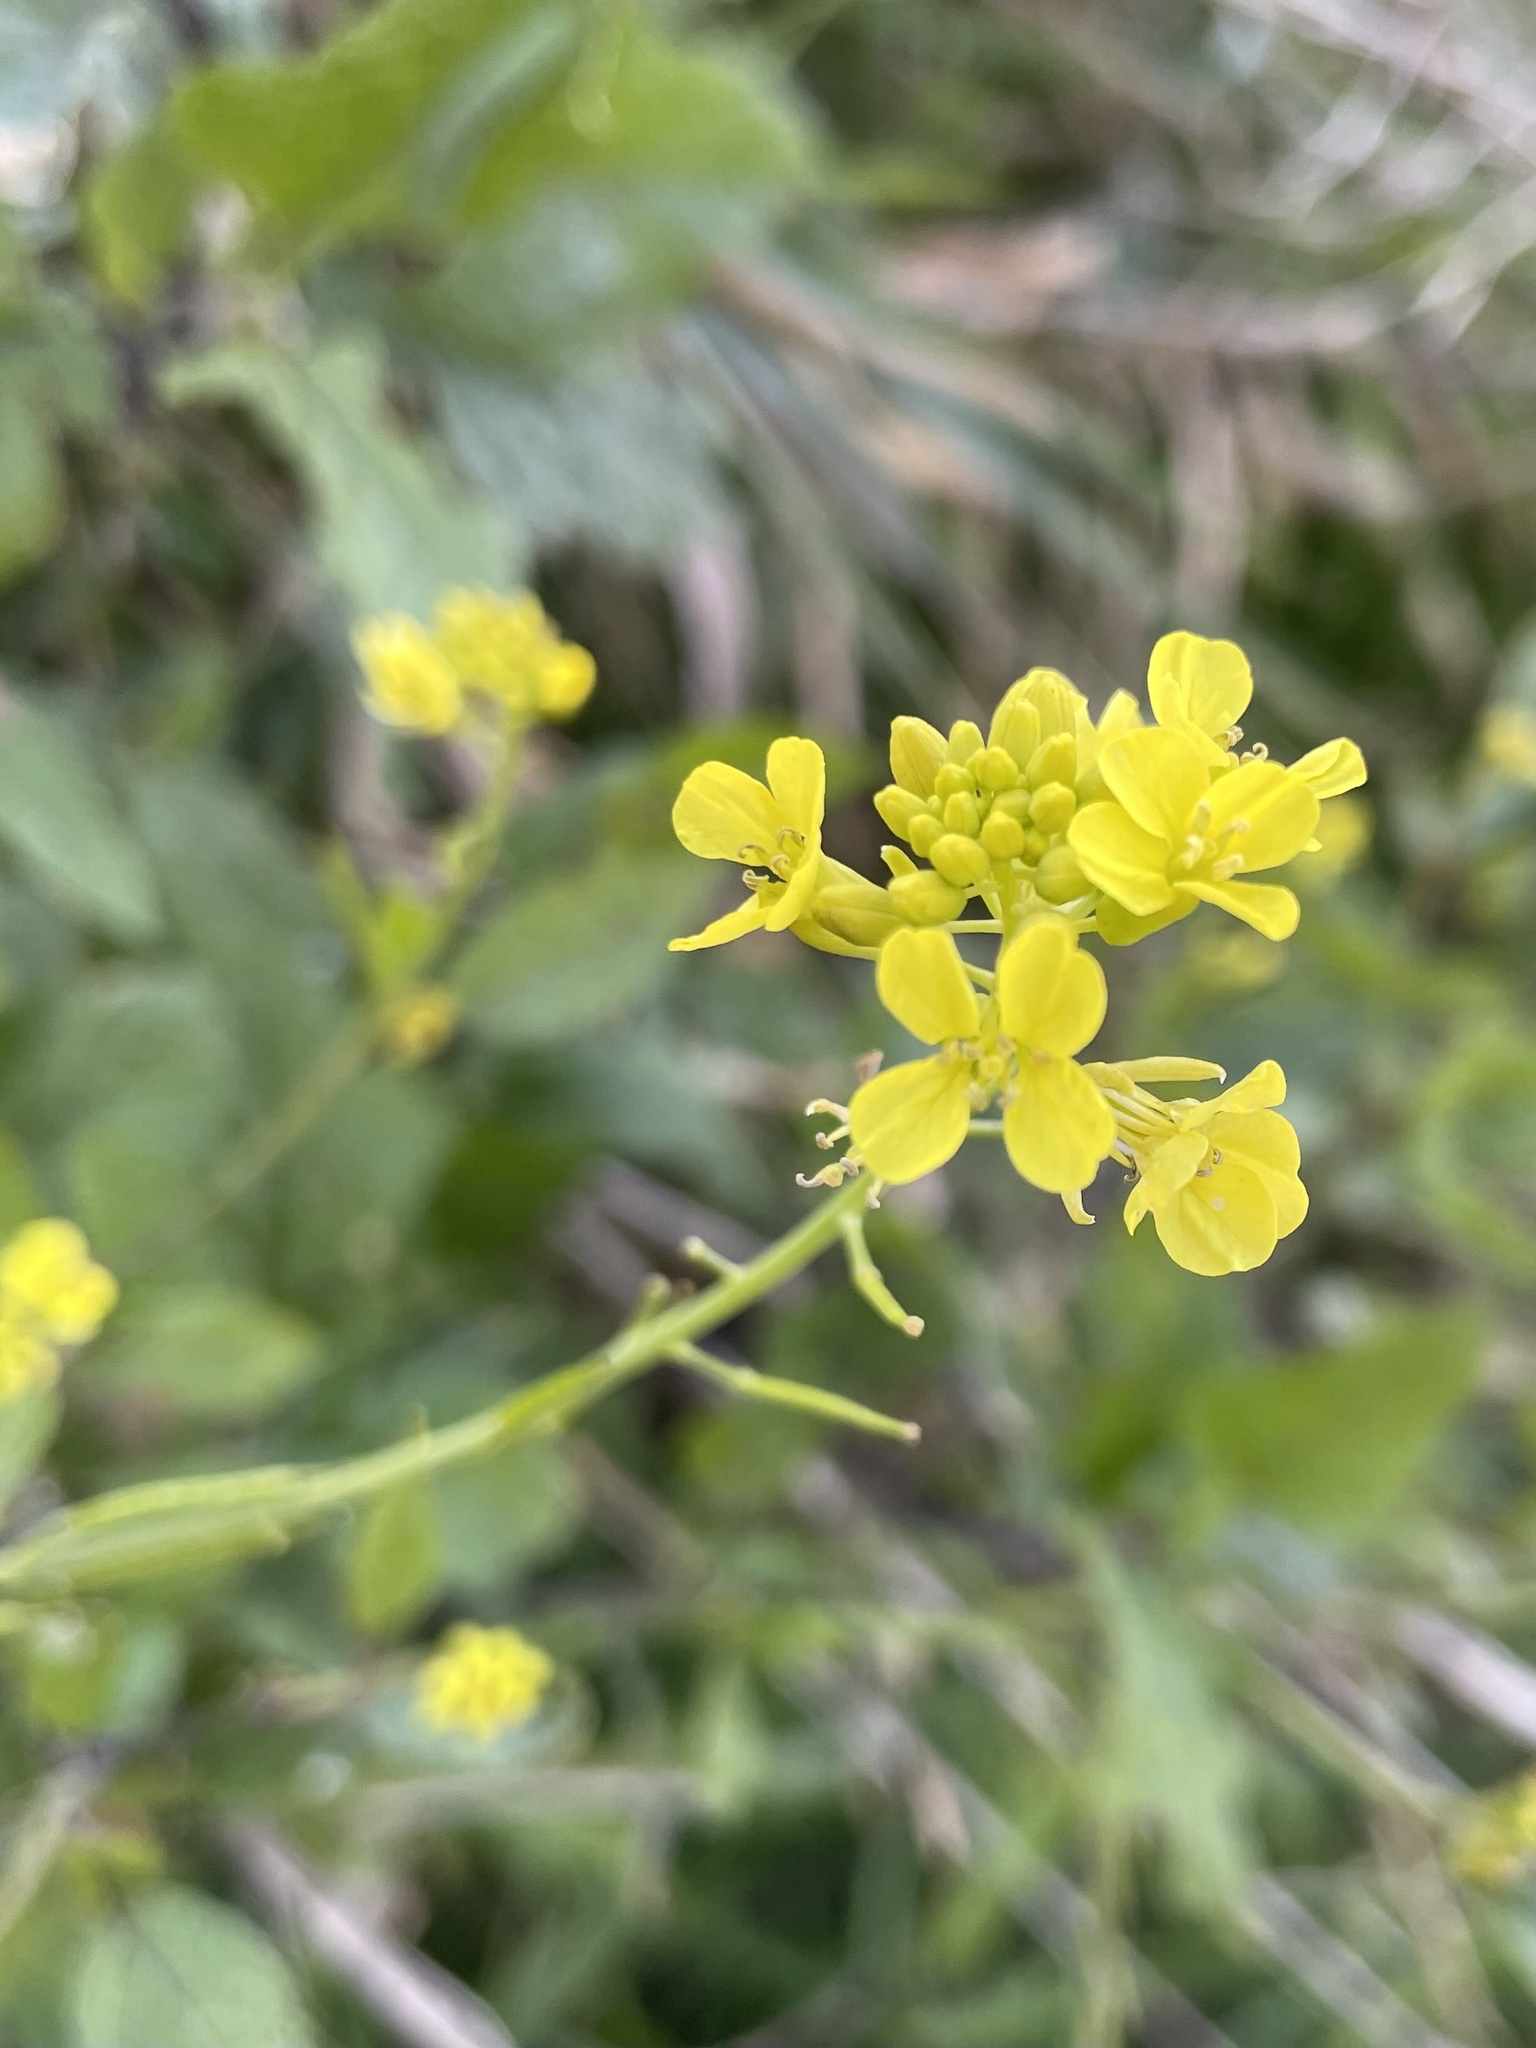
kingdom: Plantae
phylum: Tracheophyta
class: Magnoliopsida
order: Brassicales
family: Brassicaceae
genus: Brassica
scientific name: Brassica nigra
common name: Black mustard
